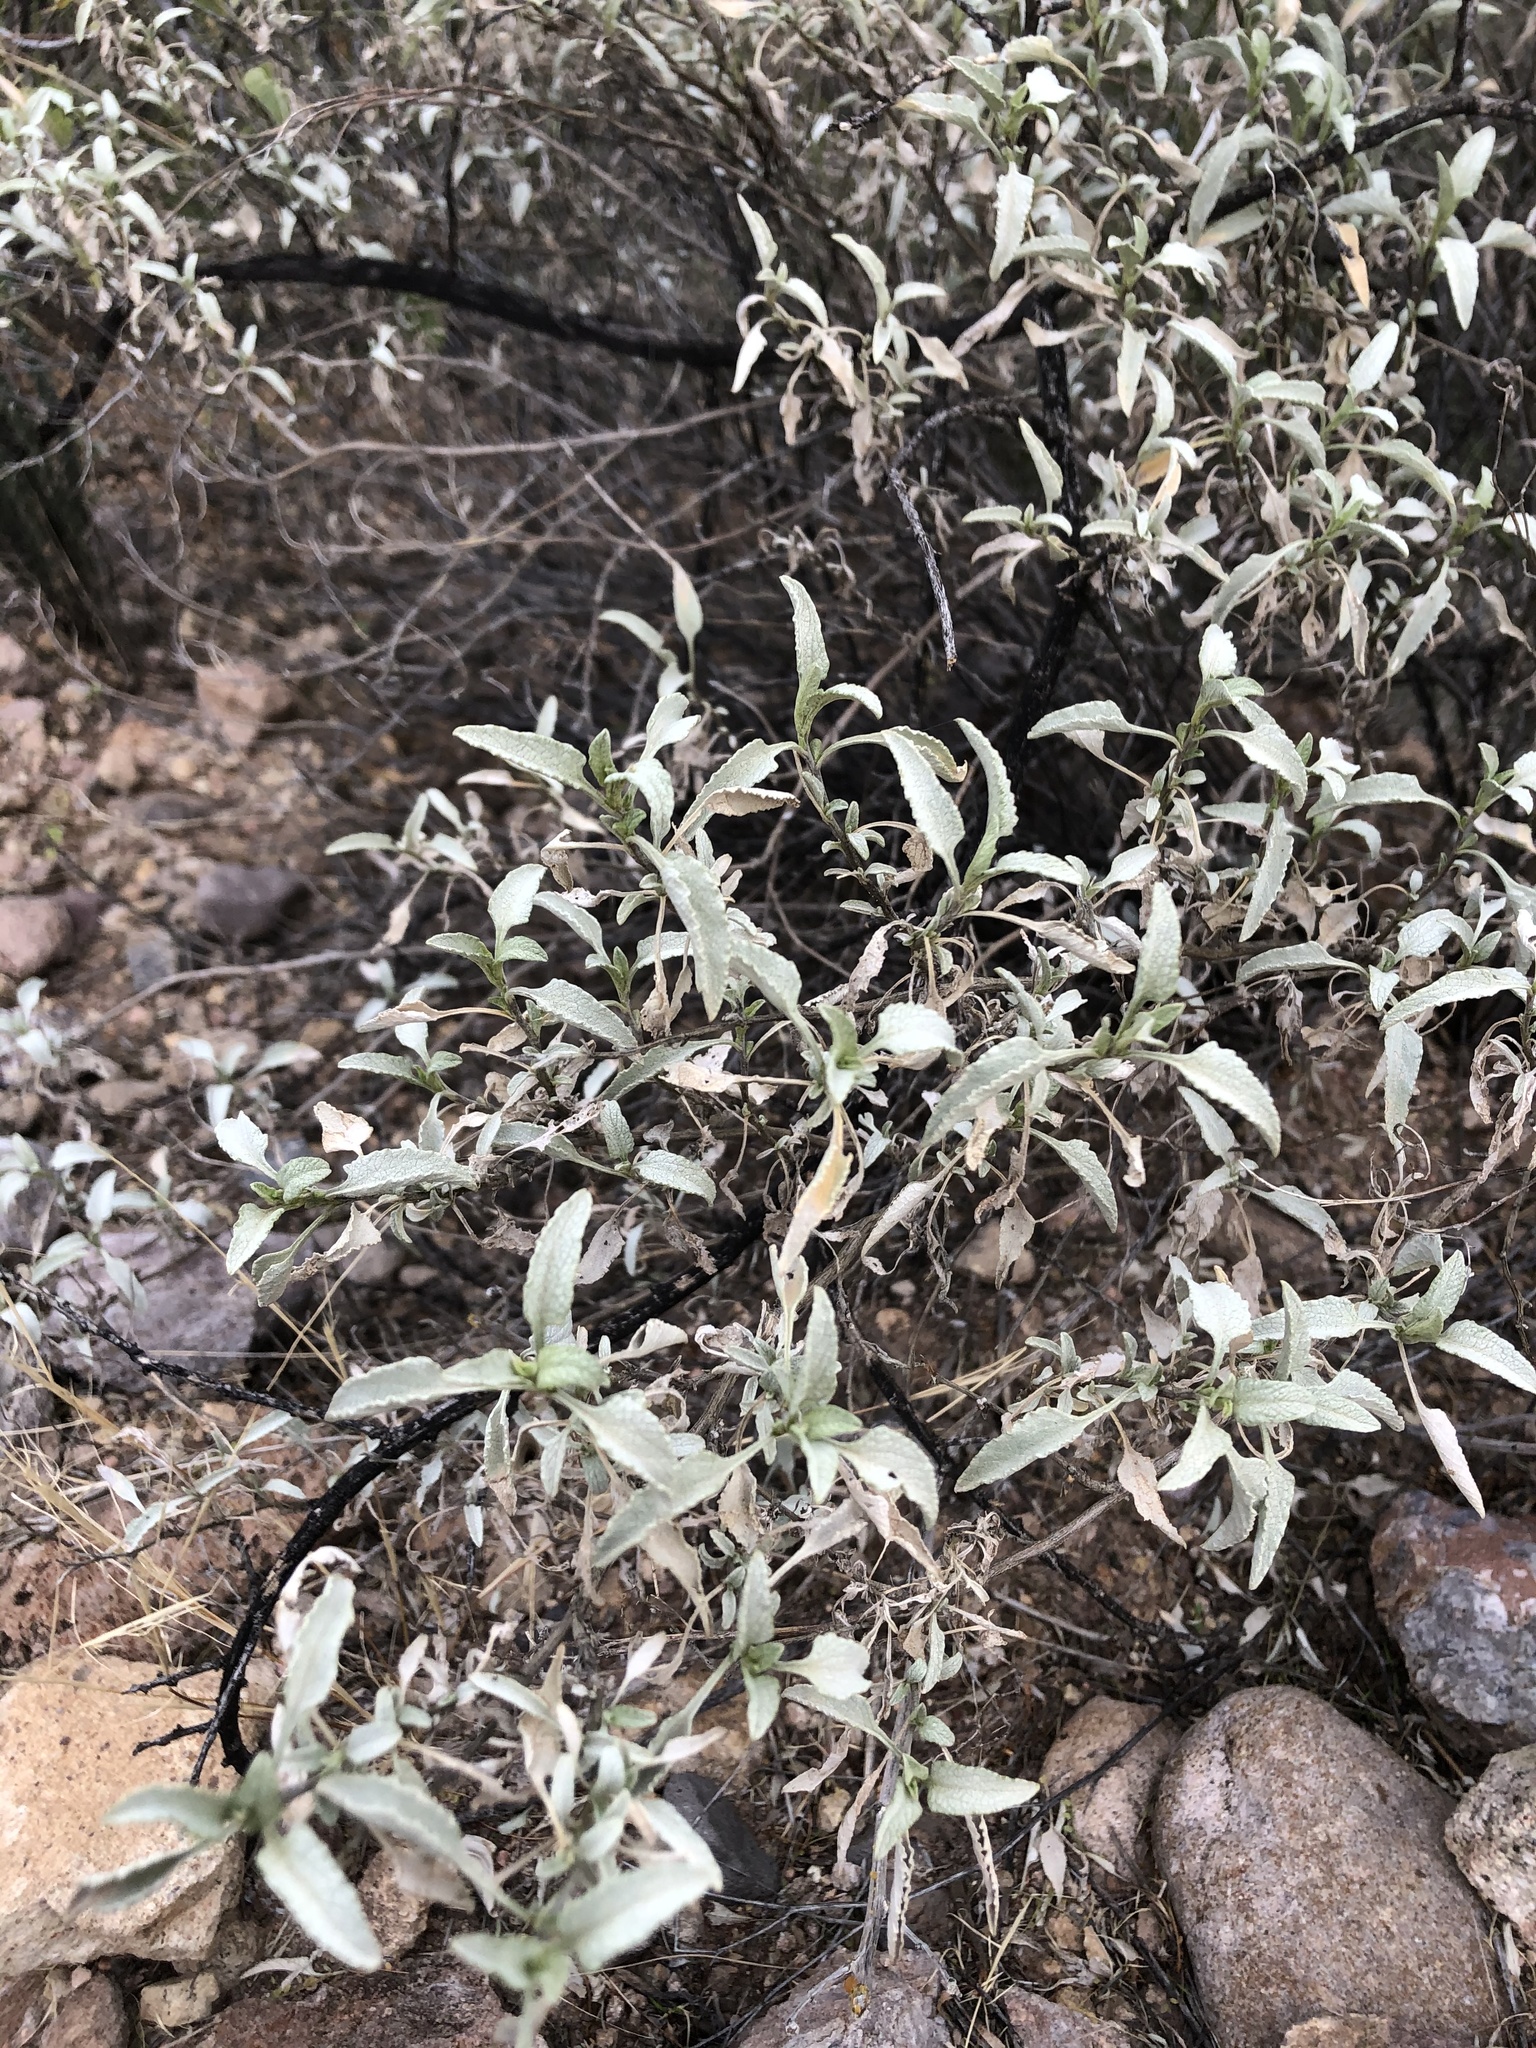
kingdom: Plantae
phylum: Tracheophyta
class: Magnoliopsida
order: Asterales
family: Asteraceae
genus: Ambrosia
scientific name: Ambrosia deltoidea
